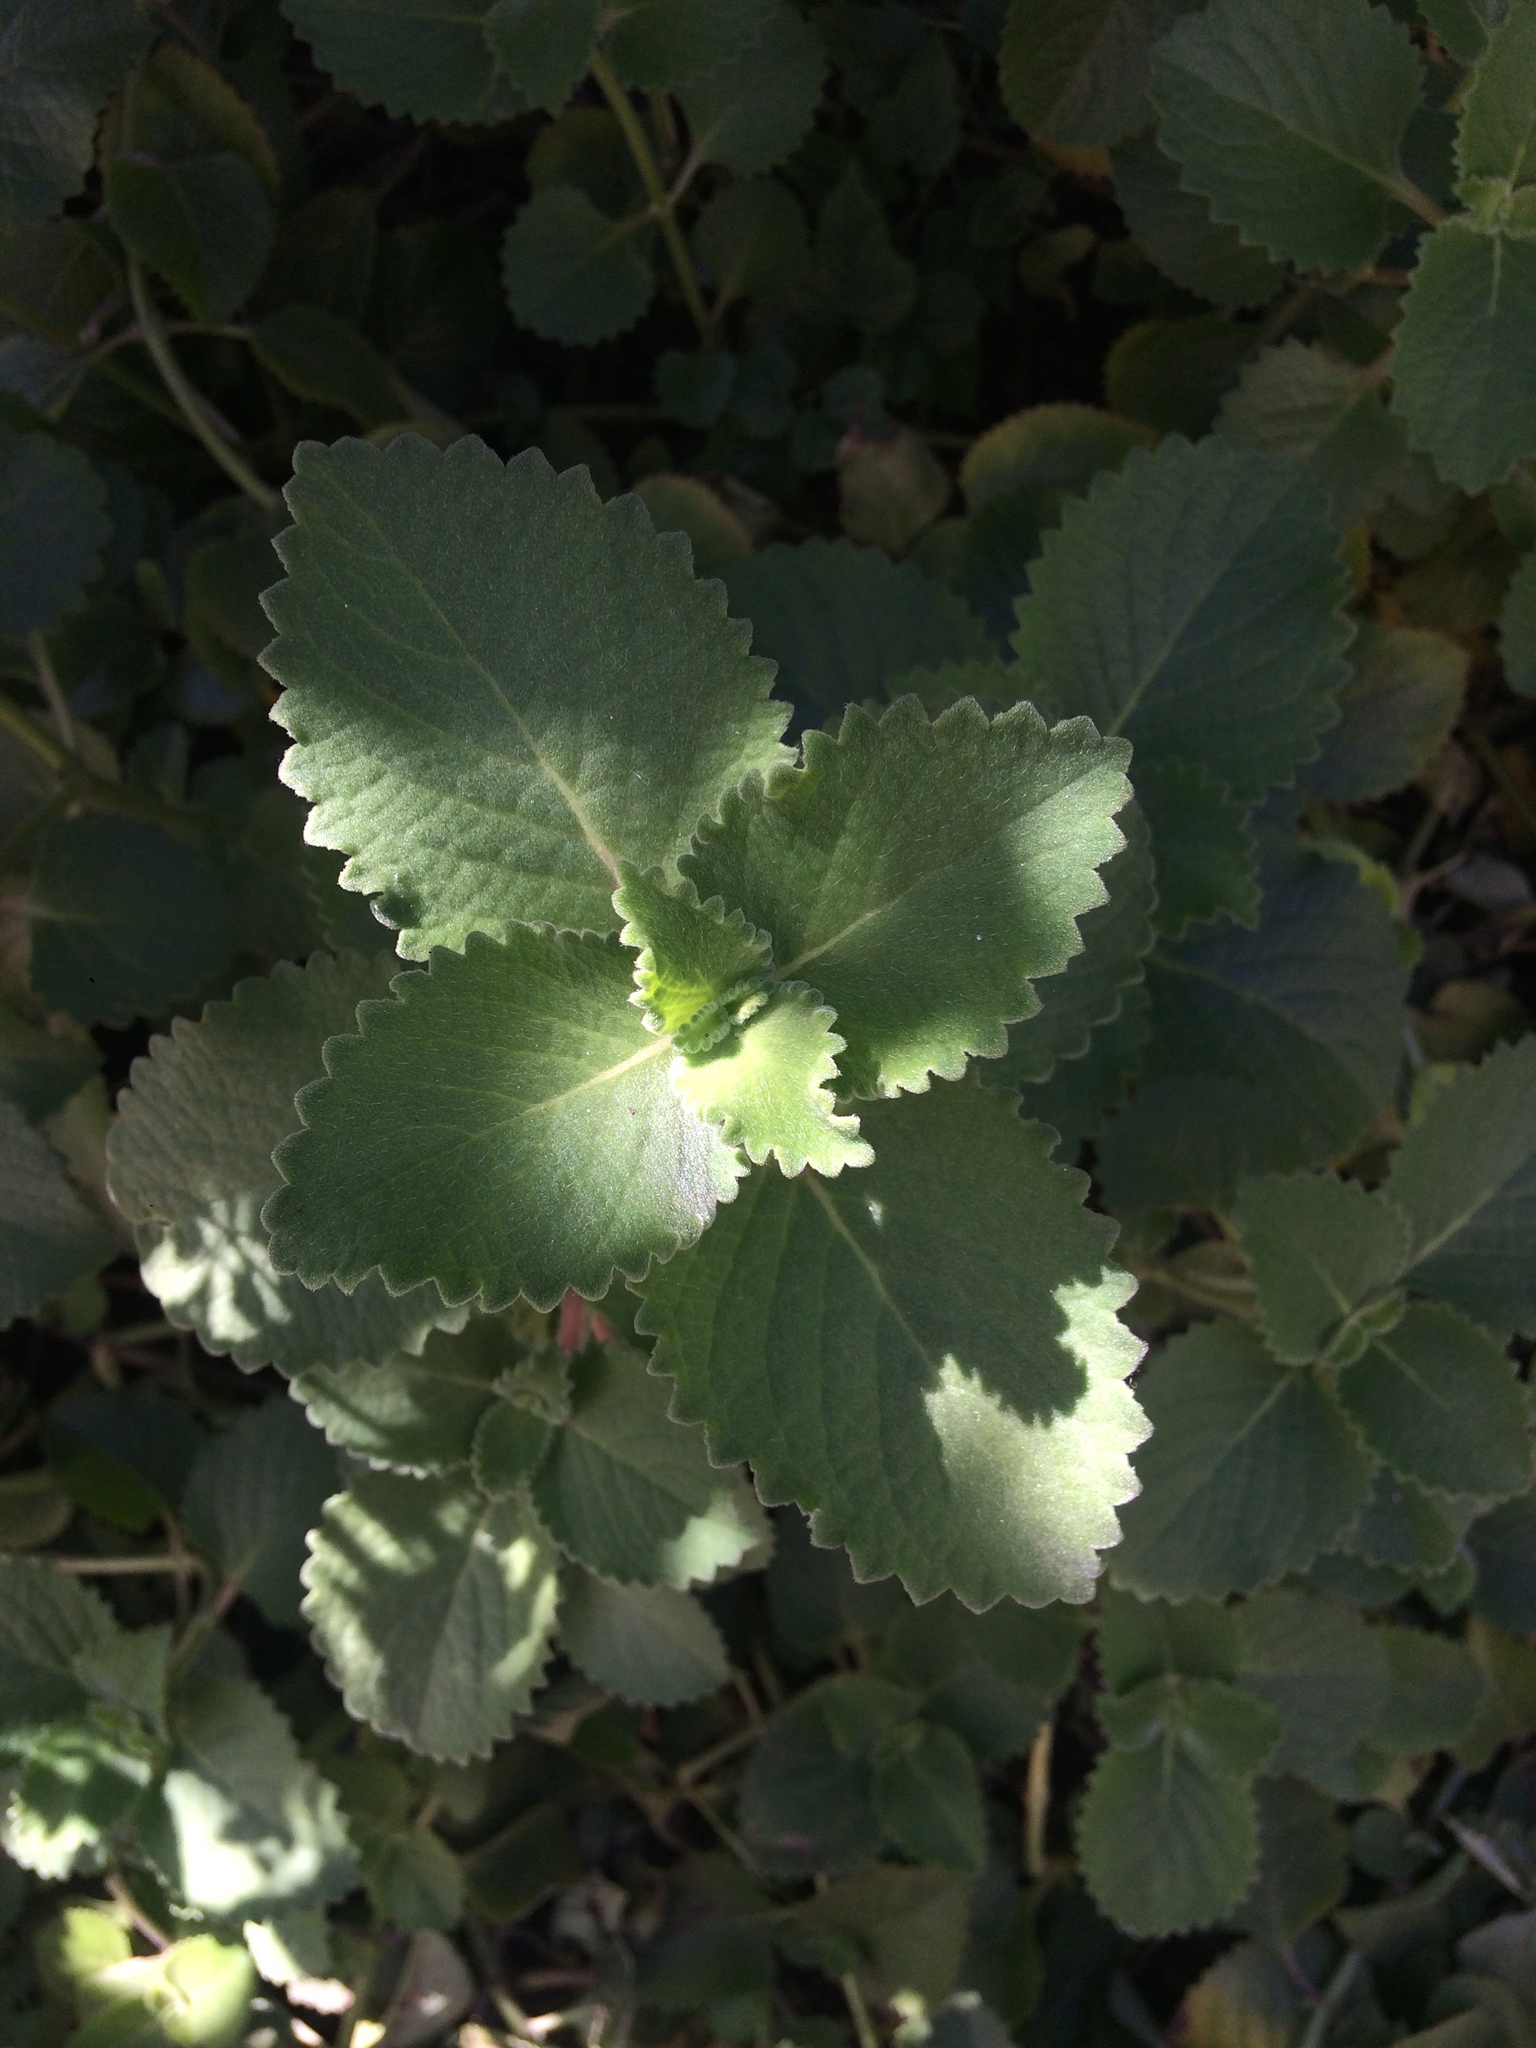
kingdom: Plantae
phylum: Tracheophyta
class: Magnoliopsida
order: Lamiales
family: Lamiaceae
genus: Coleus
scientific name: Coleus amboinicus
